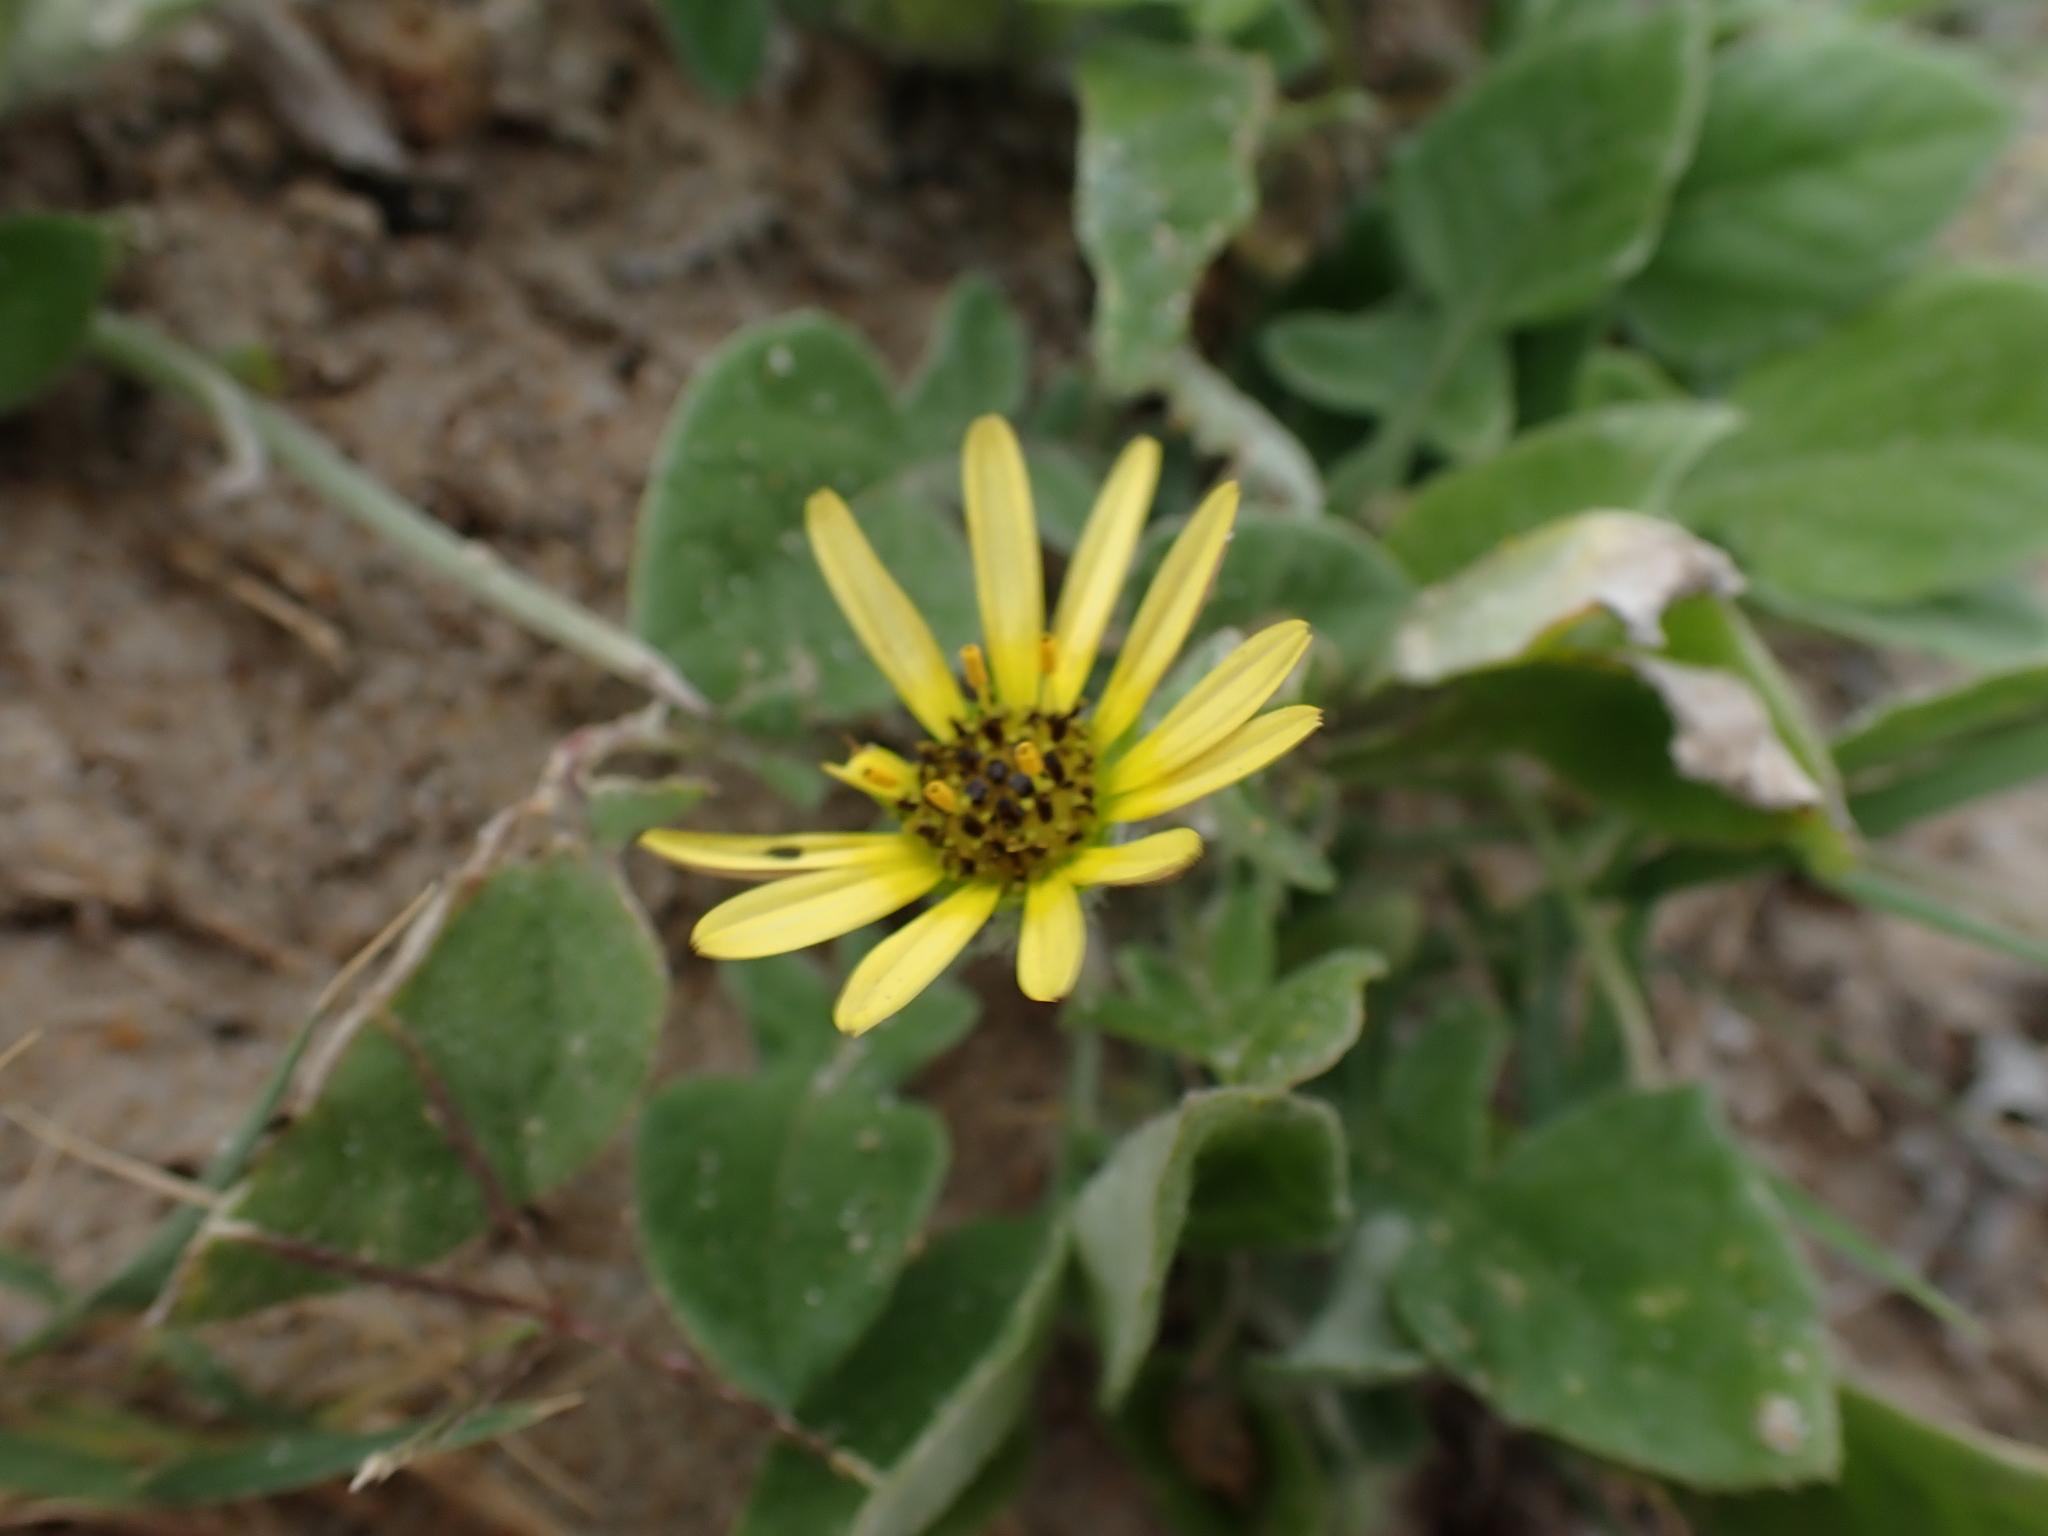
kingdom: Plantae
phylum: Tracheophyta
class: Magnoliopsida
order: Asterales
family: Asteraceae
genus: Arctotheca
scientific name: Arctotheca calendula
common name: Capeweed
